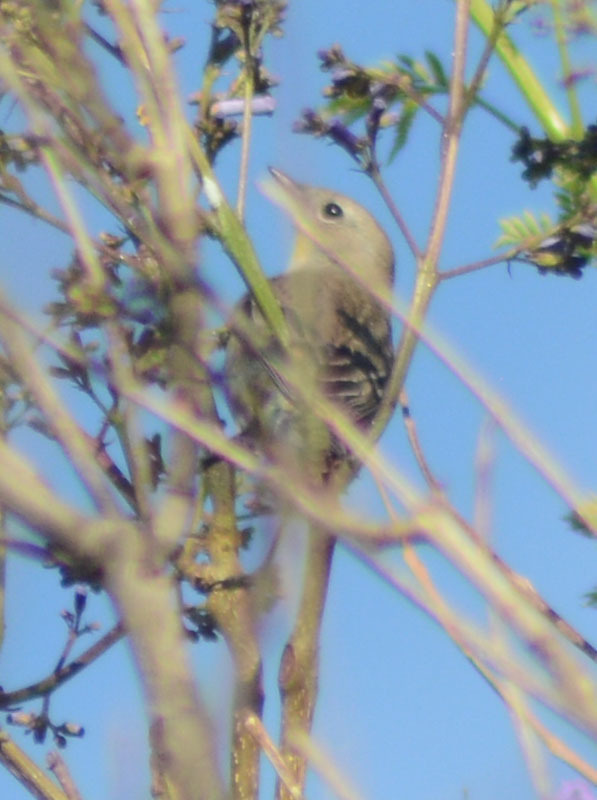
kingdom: Animalia
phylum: Chordata
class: Aves
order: Passeriformes
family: Parulidae
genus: Setophaga
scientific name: Setophaga coronata
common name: Myrtle warbler
